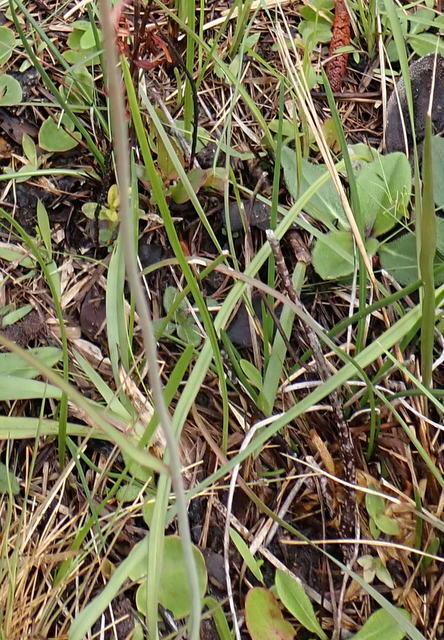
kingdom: Plantae
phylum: Tracheophyta
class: Liliopsida
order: Liliales
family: Melanthiaceae
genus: Stenanthium
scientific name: Stenanthium densum
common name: Crow-poison
